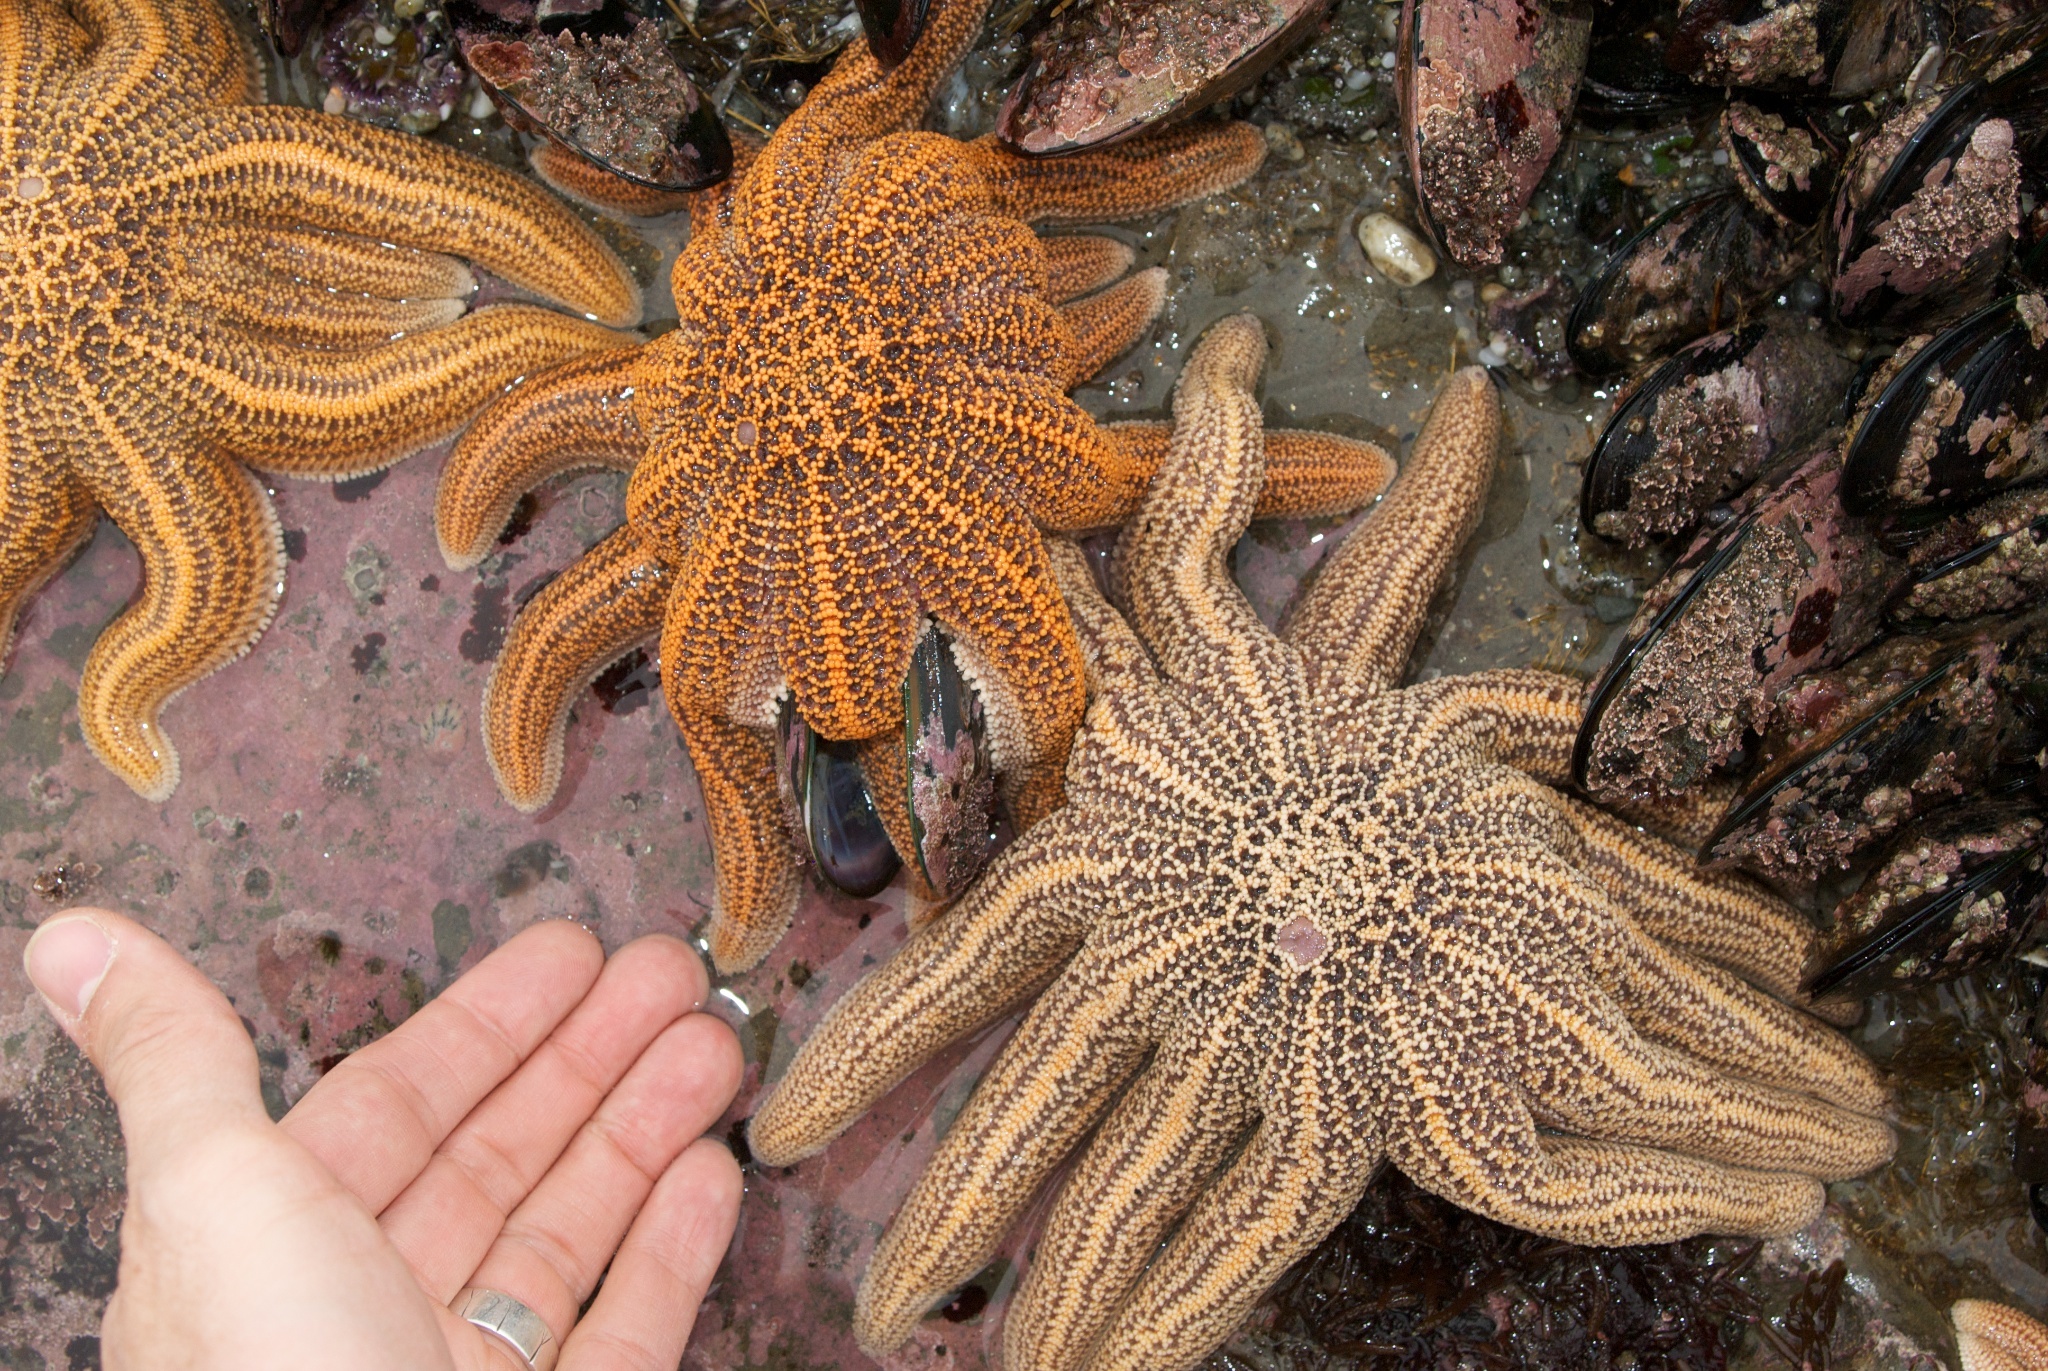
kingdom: Animalia
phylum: Echinodermata
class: Asteroidea
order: Forcipulatida
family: Stichasteridae
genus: Stichaster
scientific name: Stichaster australis
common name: Reef starfish
